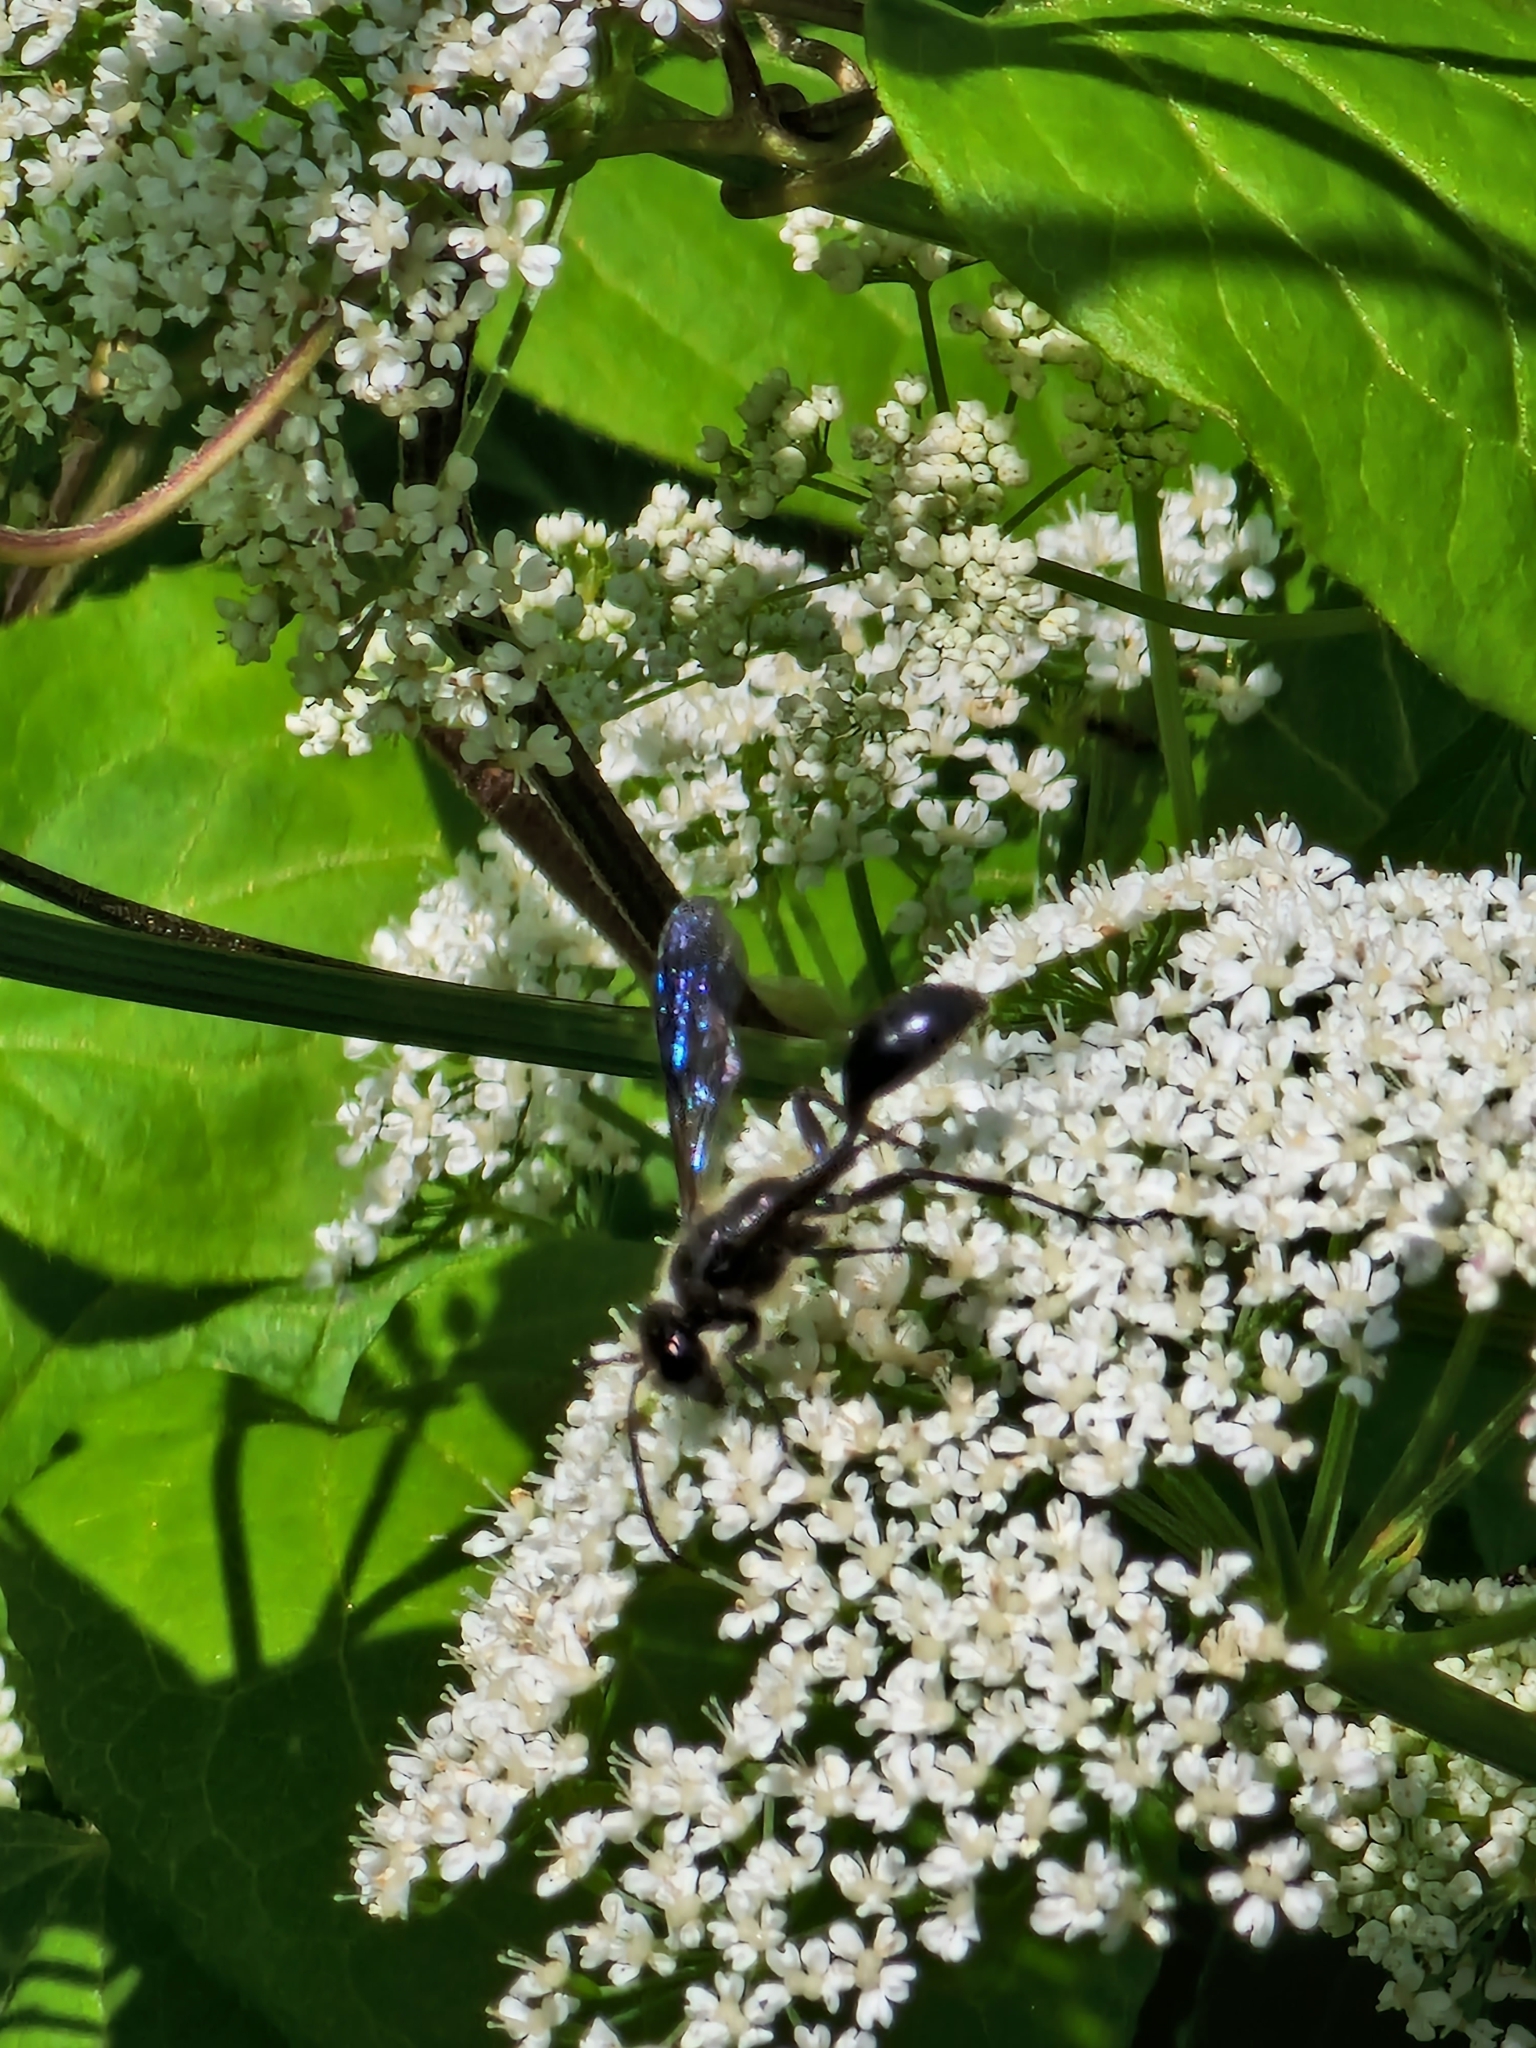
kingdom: Animalia
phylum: Arthropoda
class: Insecta
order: Hymenoptera
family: Sphecidae
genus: Isodontia
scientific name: Isodontia mexicana
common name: Mud dauber
